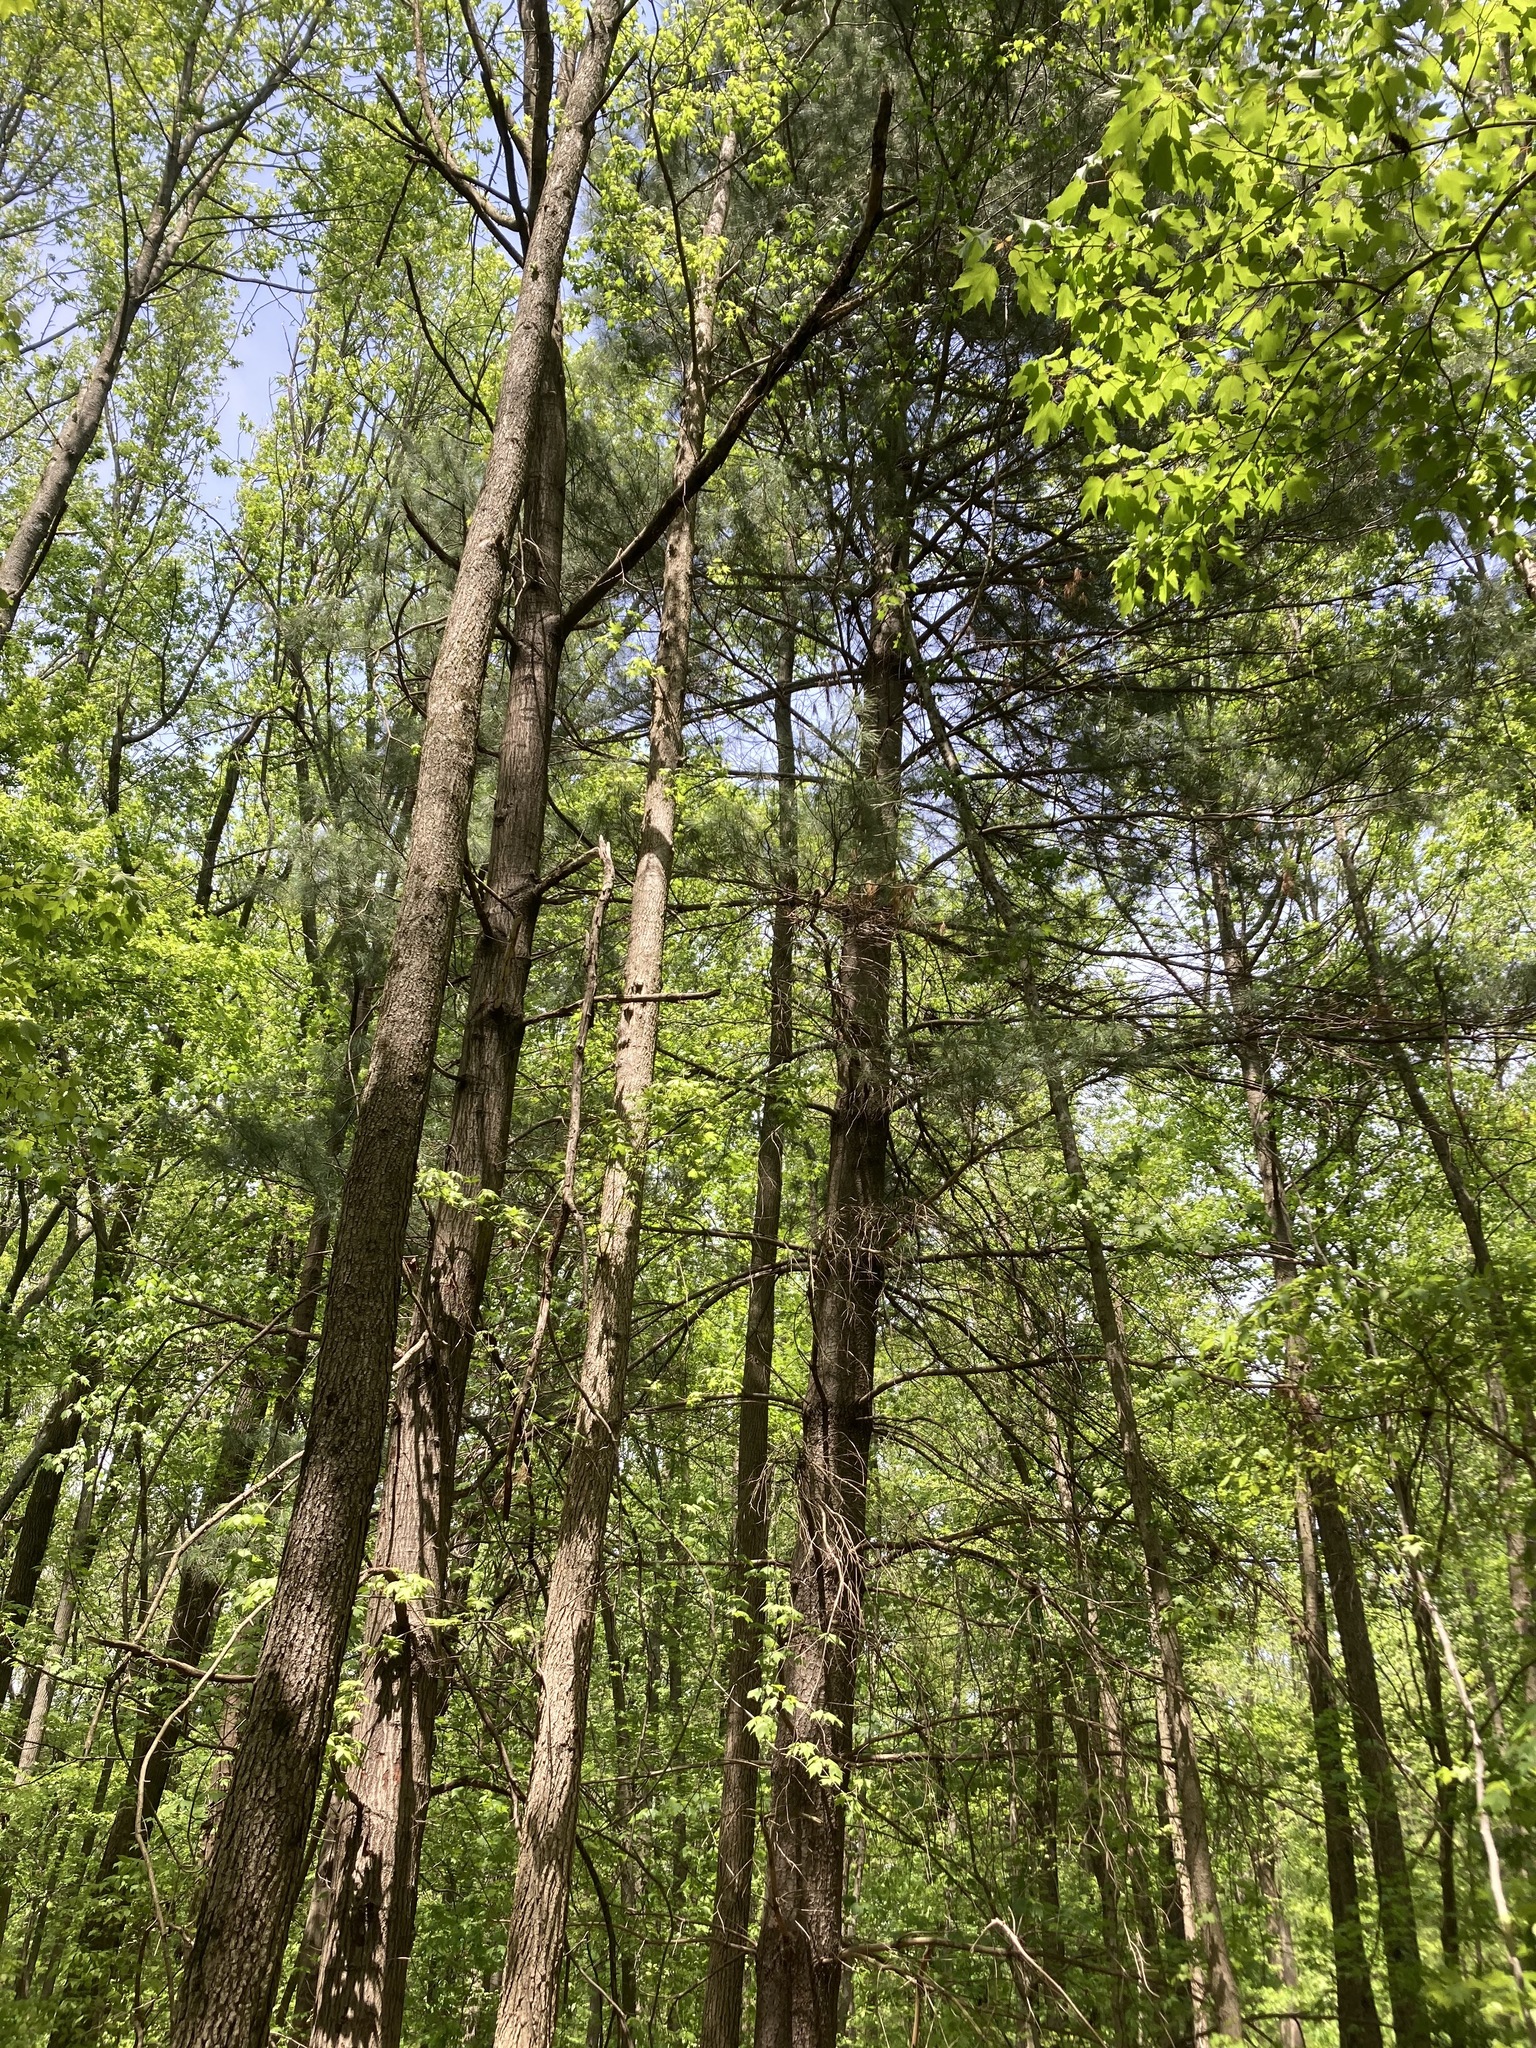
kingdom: Plantae
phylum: Tracheophyta
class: Pinopsida
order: Pinales
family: Pinaceae
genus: Pinus
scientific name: Pinus strobus
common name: Weymouth pine
